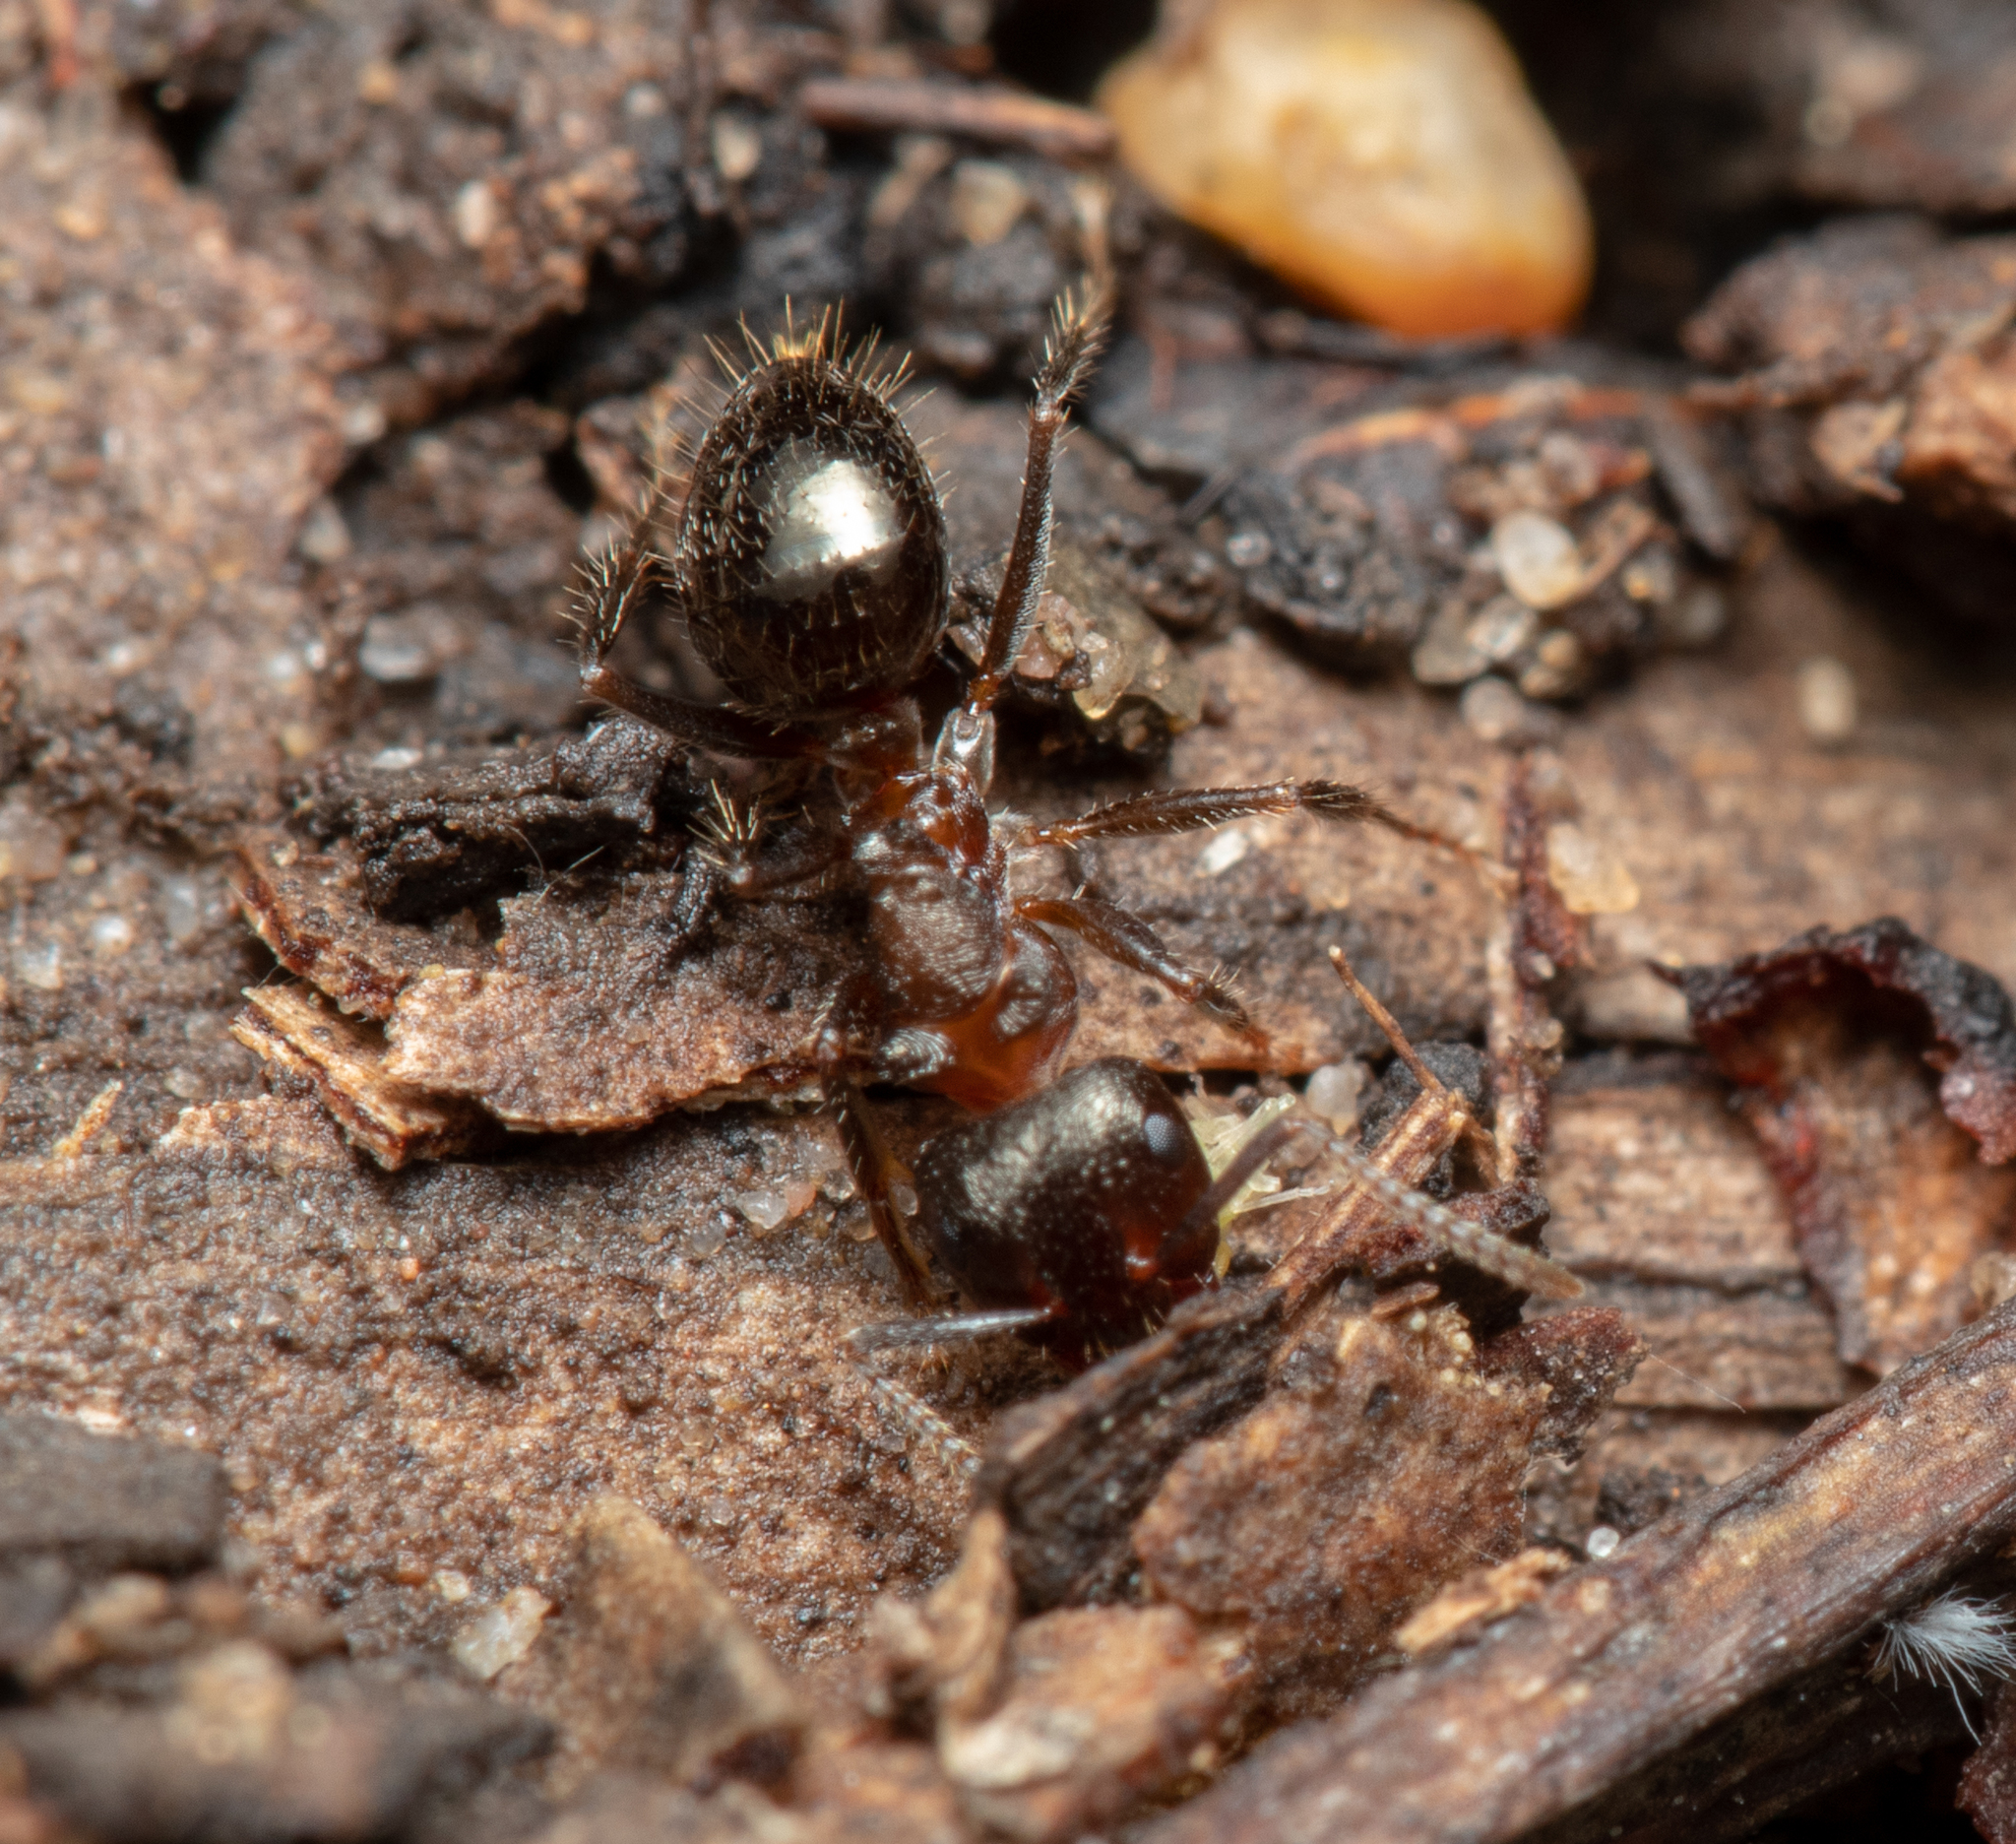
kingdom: Animalia
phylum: Arthropoda
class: Insecta
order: Hymenoptera
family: Formicidae
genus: Notoncus
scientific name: Notoncus ectatommoides
